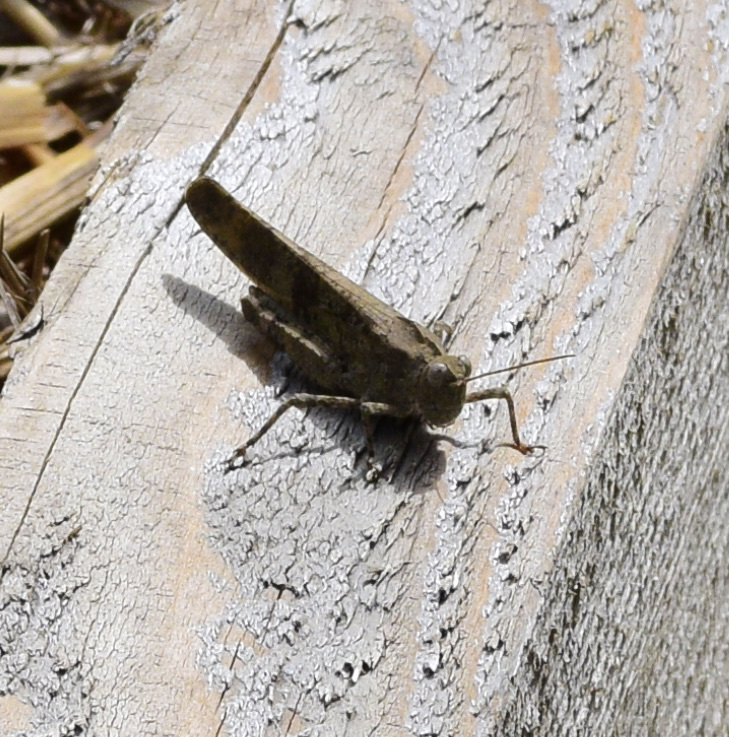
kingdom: Animalia
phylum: Arthropoda
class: Insecta
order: Orthoptera
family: Acrididae
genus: Dissosteira
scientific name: Dissosteira carolina
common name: Carolina grasshopper
